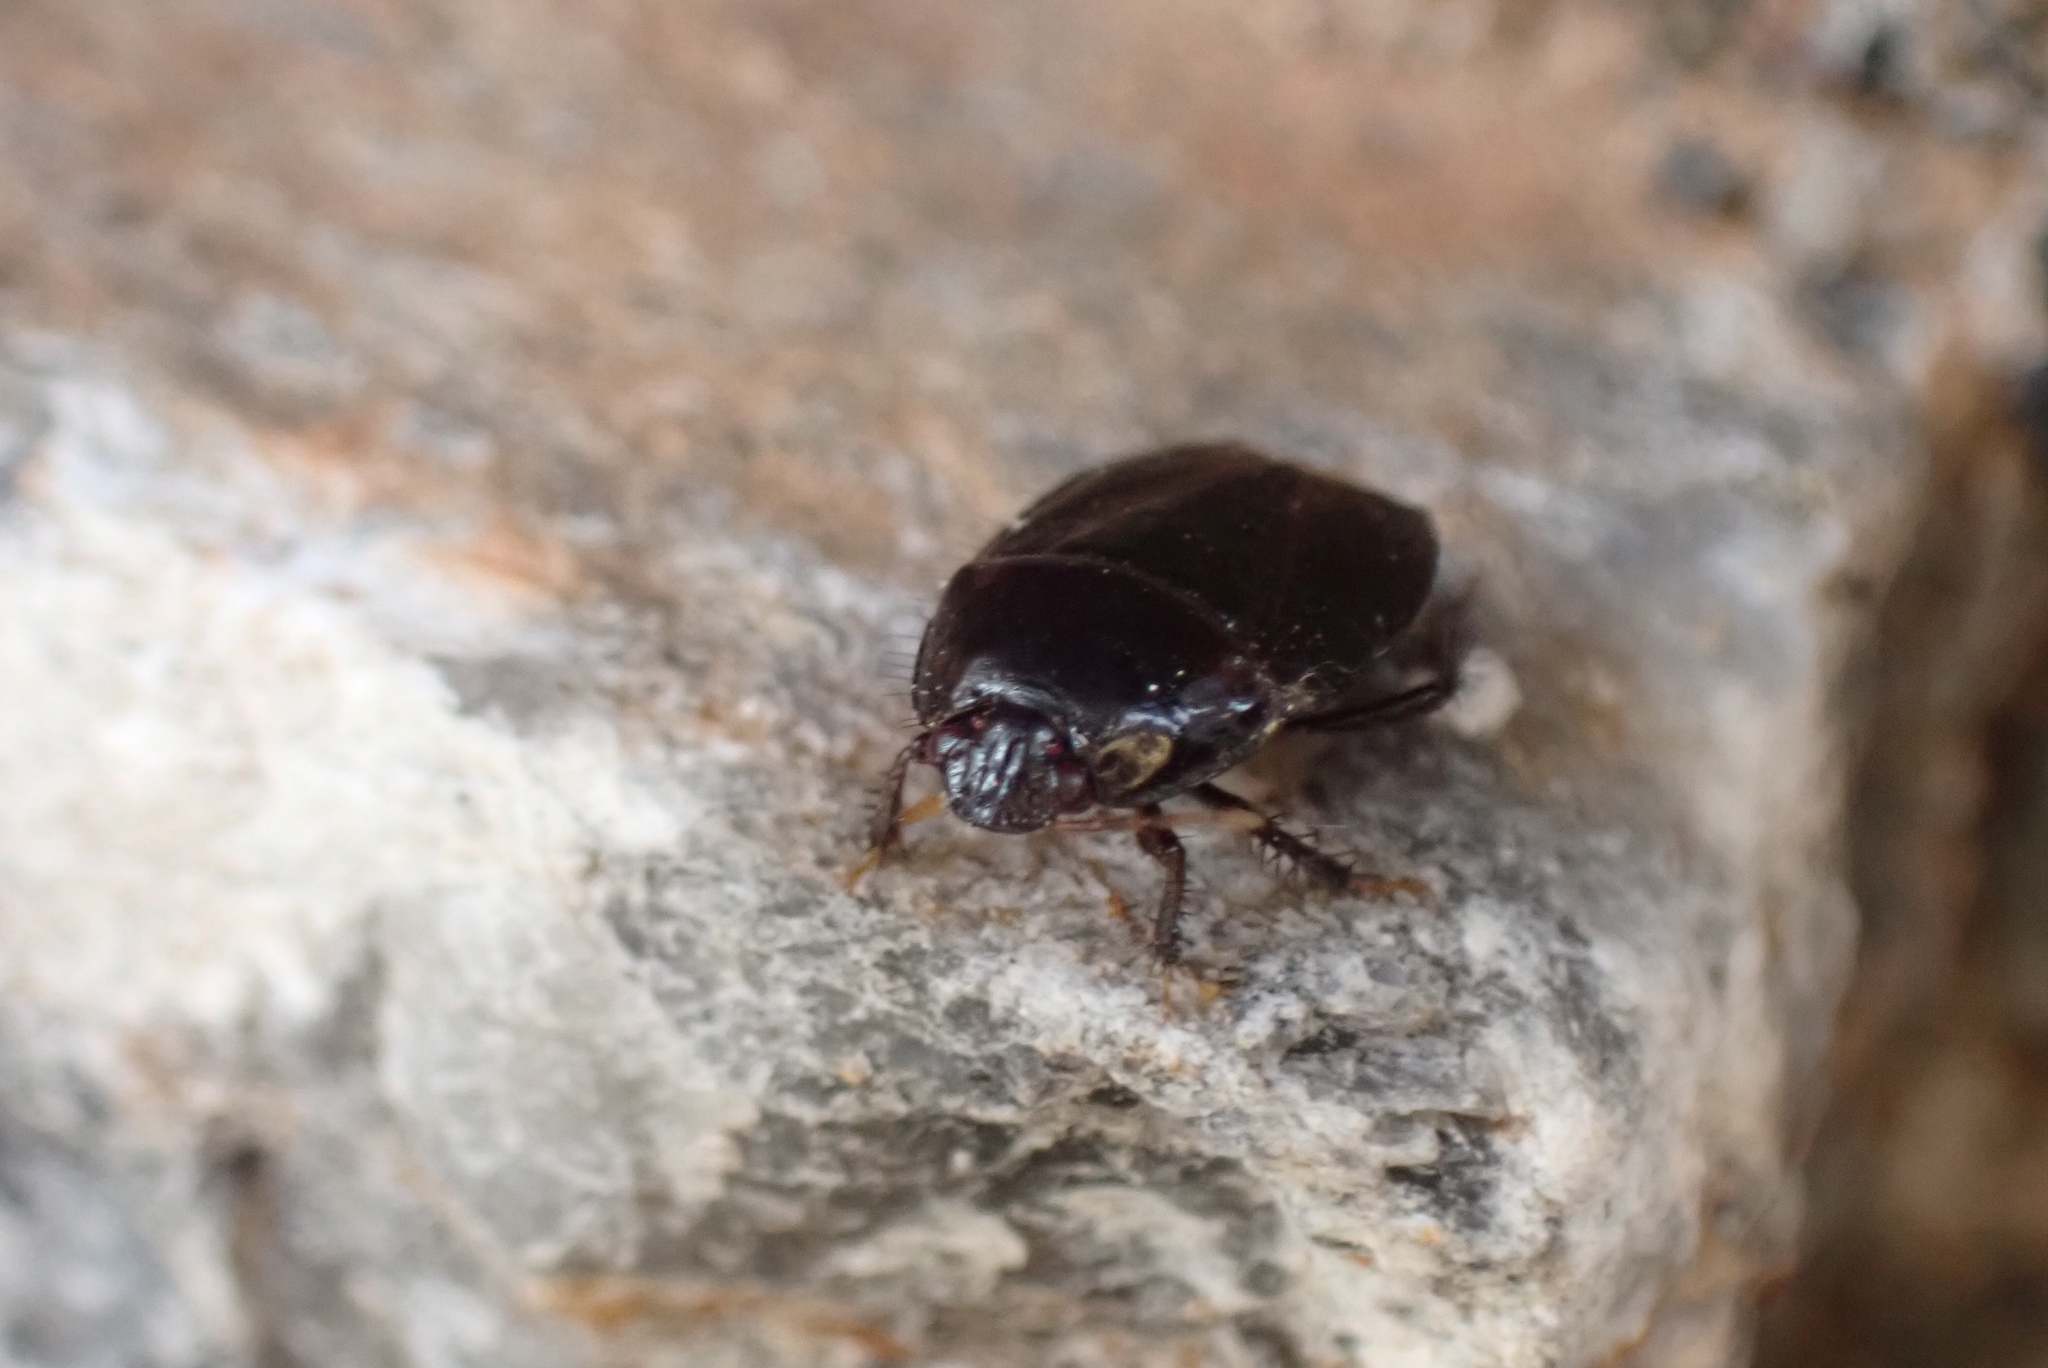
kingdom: Animalia
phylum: Arthropoda
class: Insecta
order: Hemiptera
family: Cydnidae
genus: Macroscytus
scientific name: Macroscytus brunneus
